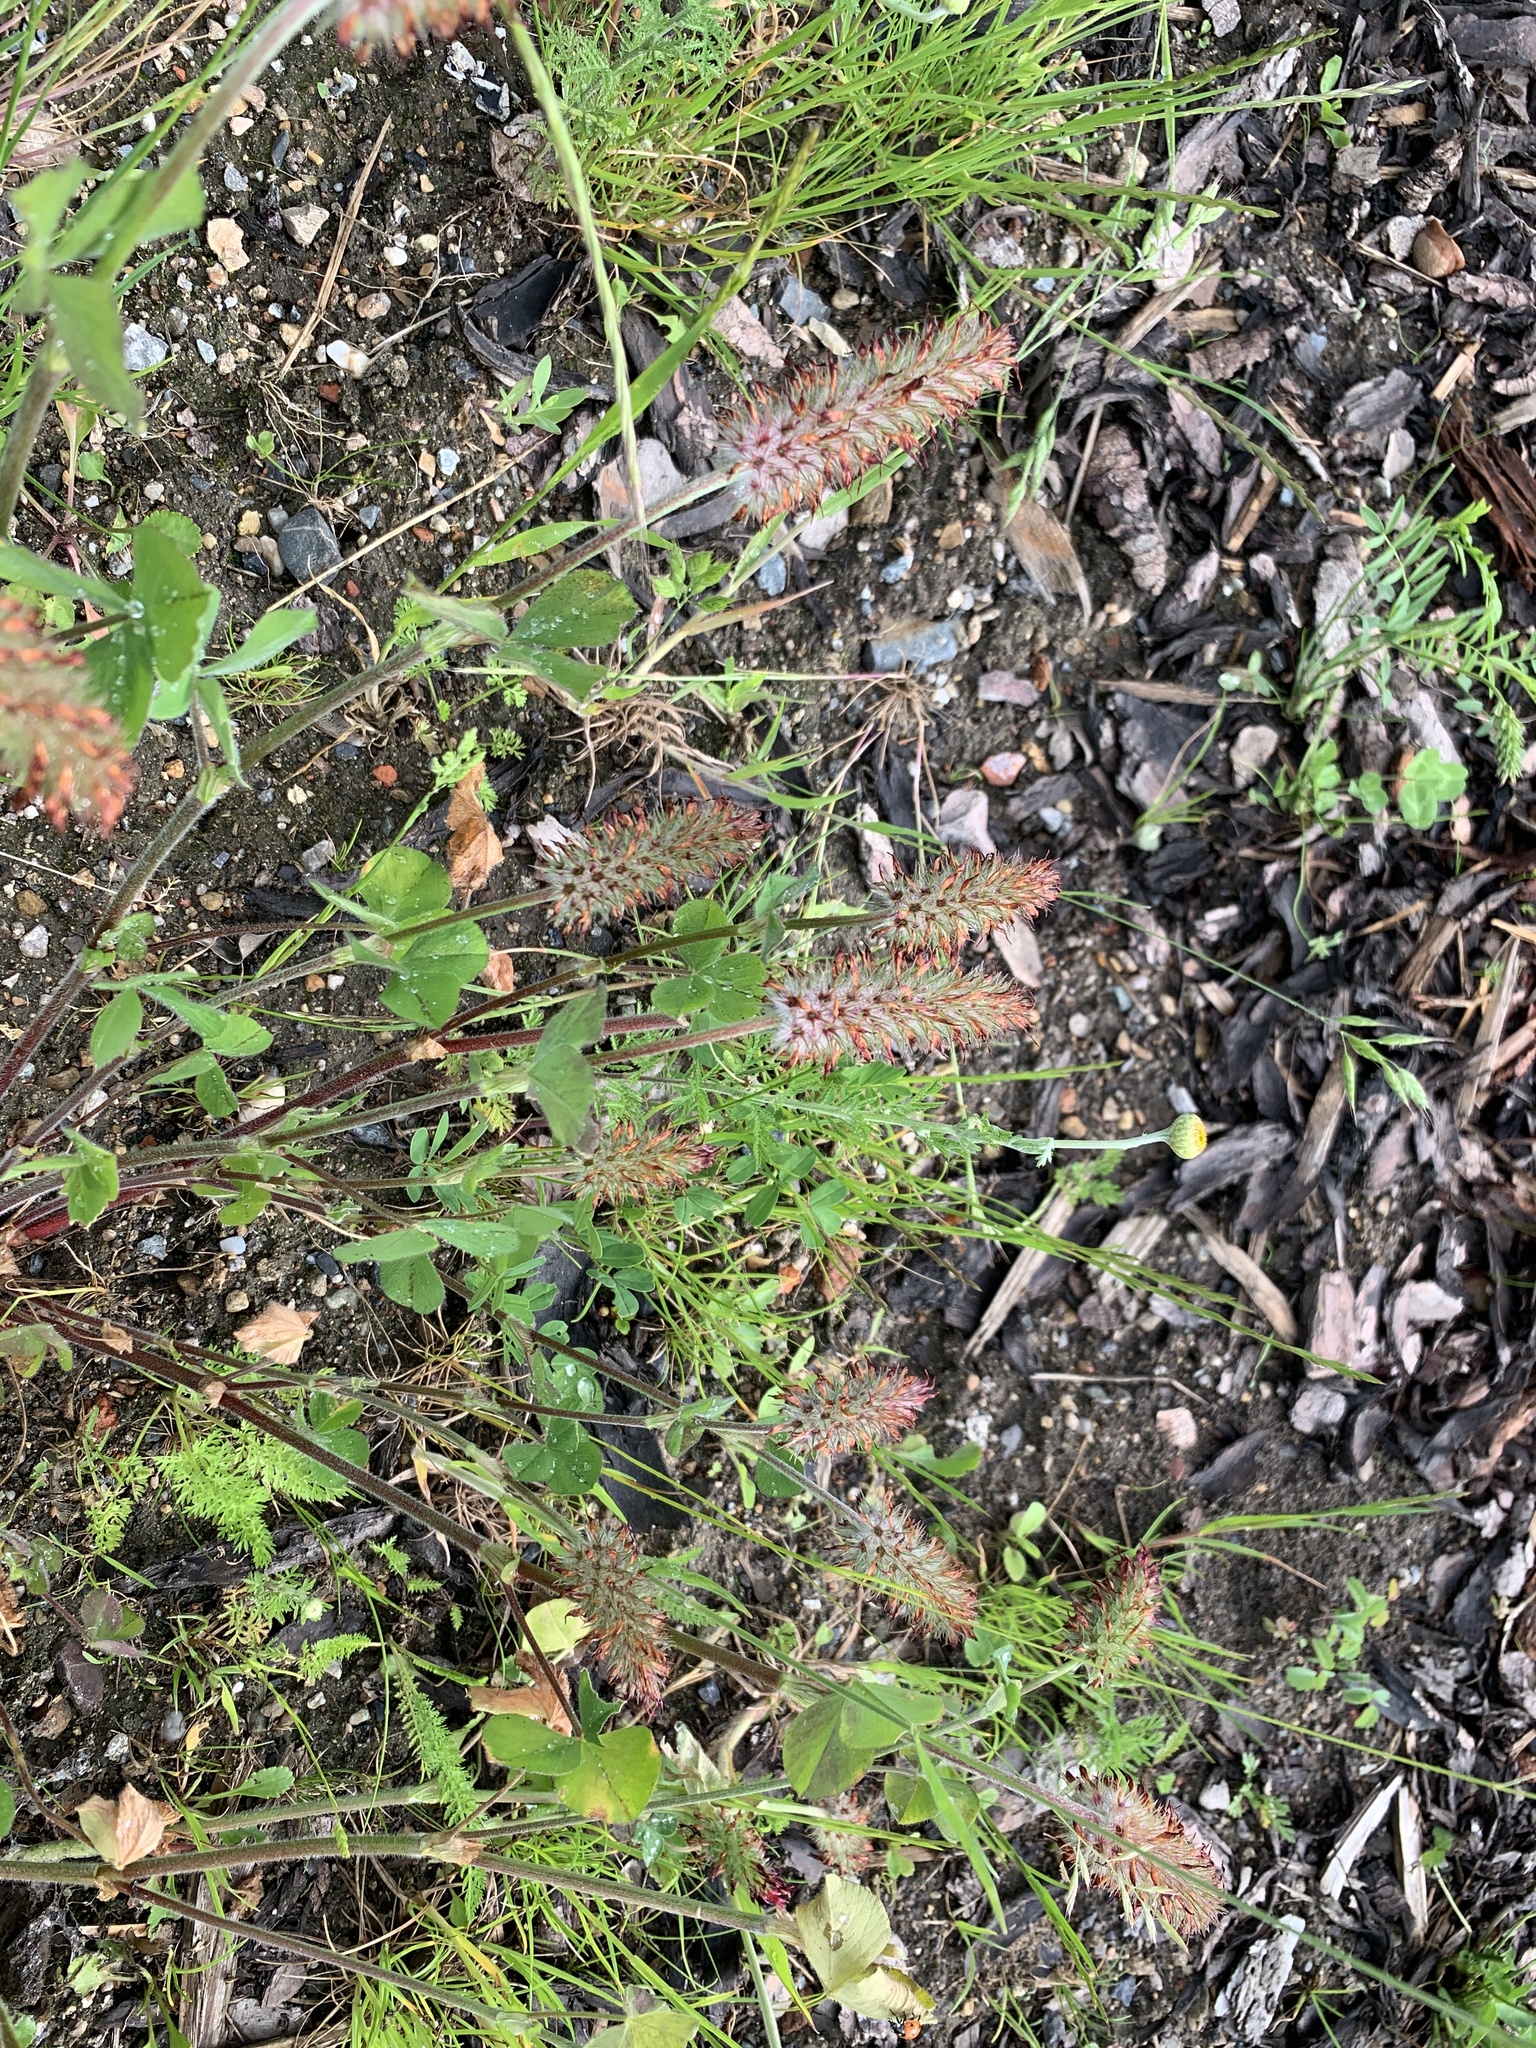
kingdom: Plantae
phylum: Tracheophyta
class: Magnoliopsida
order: Fabales
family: Fabaceae
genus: Trifolium
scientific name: Trifolium incarnatum
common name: Crimson clover
